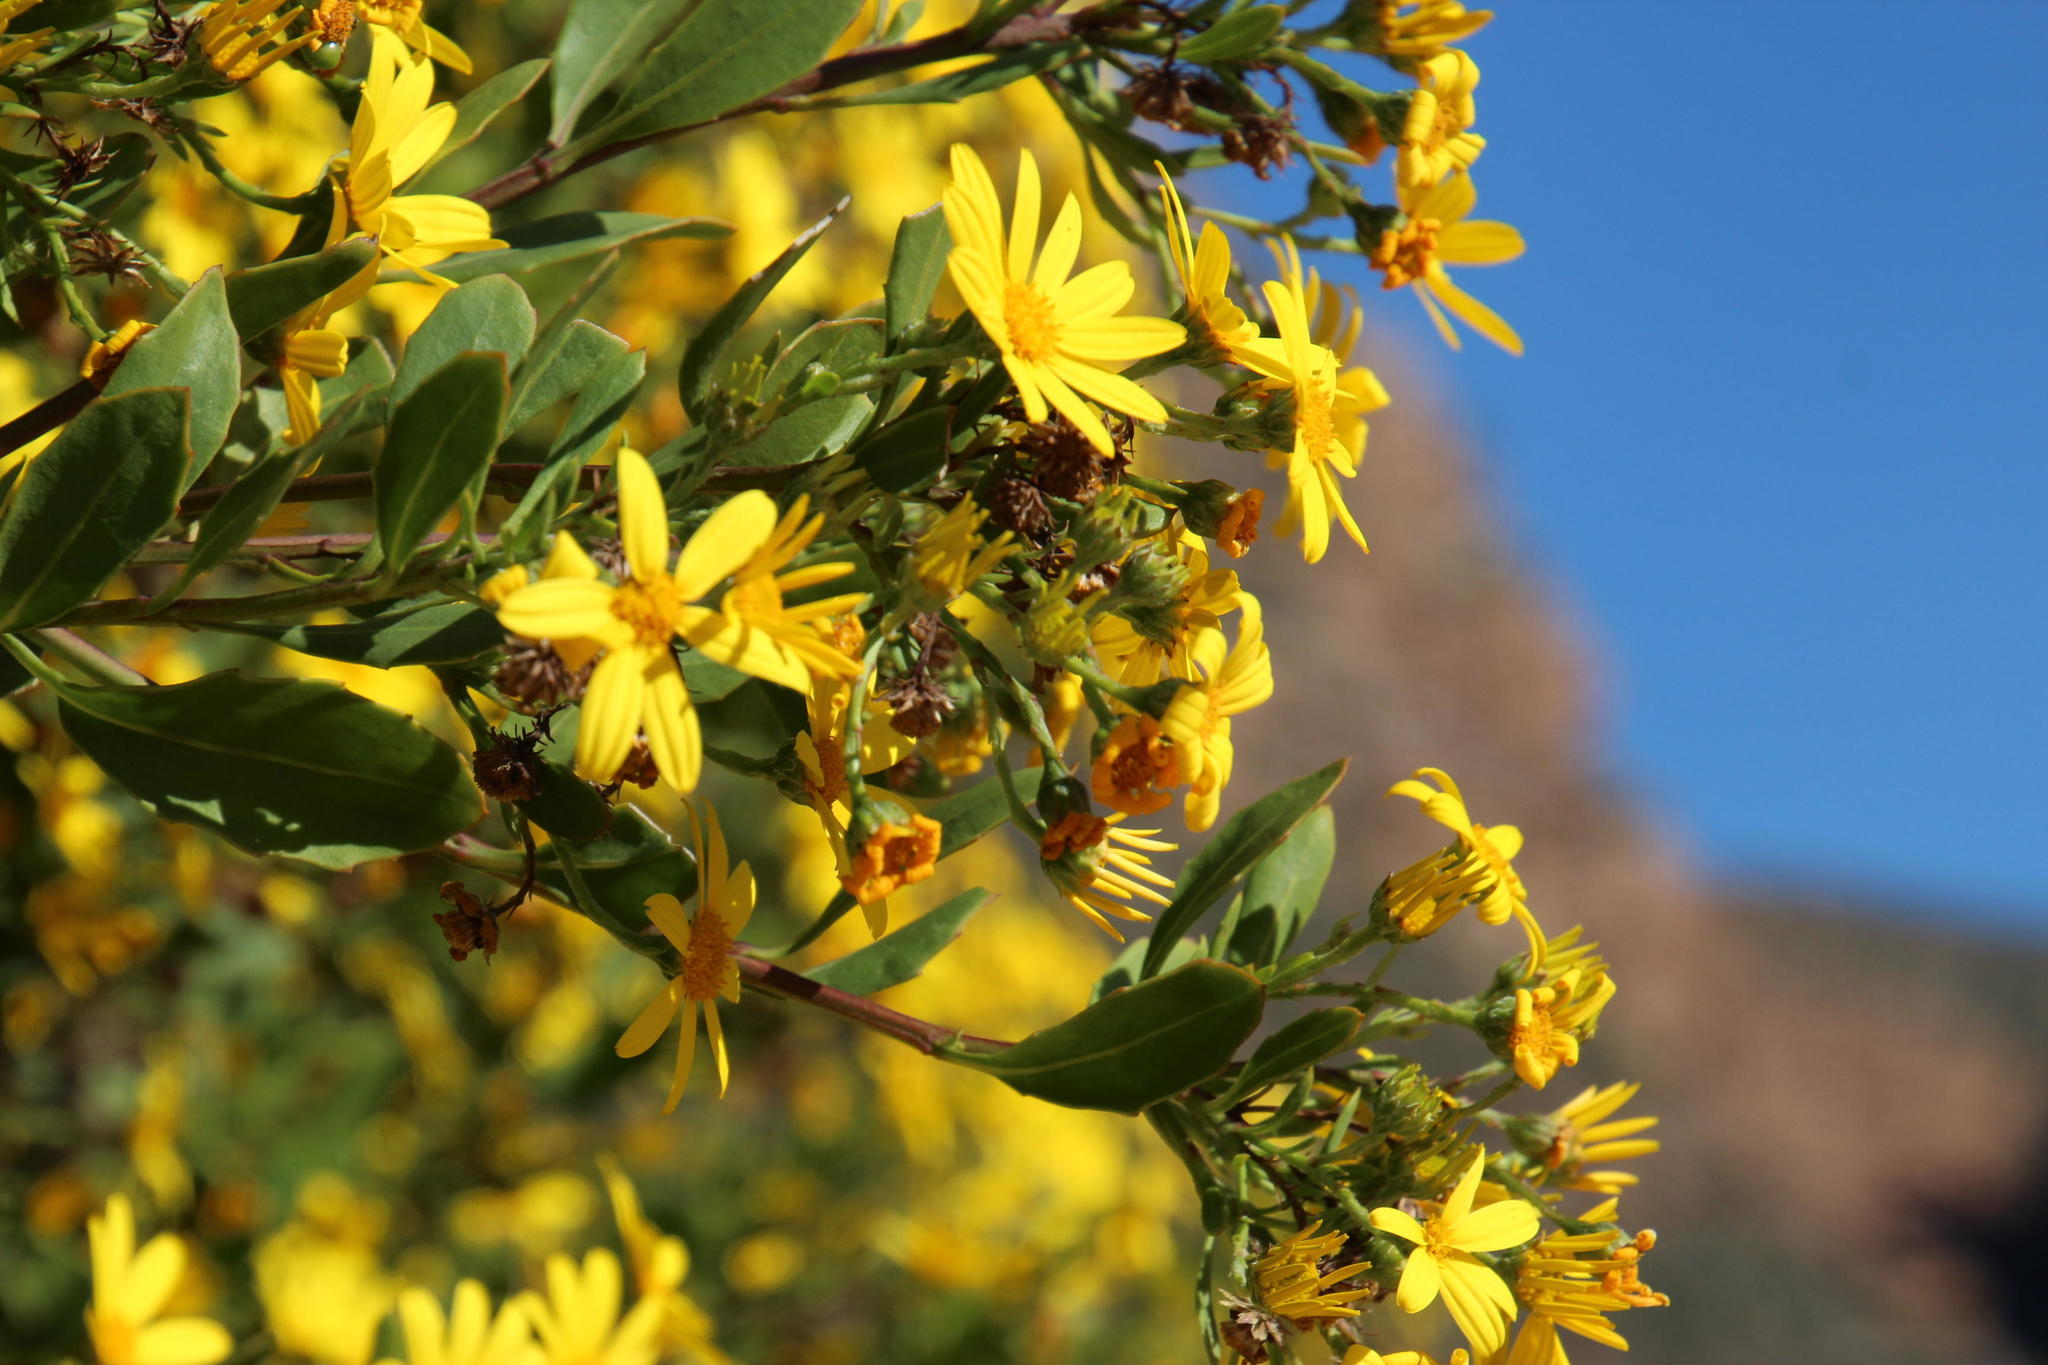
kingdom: Plantae
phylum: Tracheophyta
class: Magnoliopsida
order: Asterales
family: Asteraceae
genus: Osteospermum
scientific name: Osteospermum moniliferum
